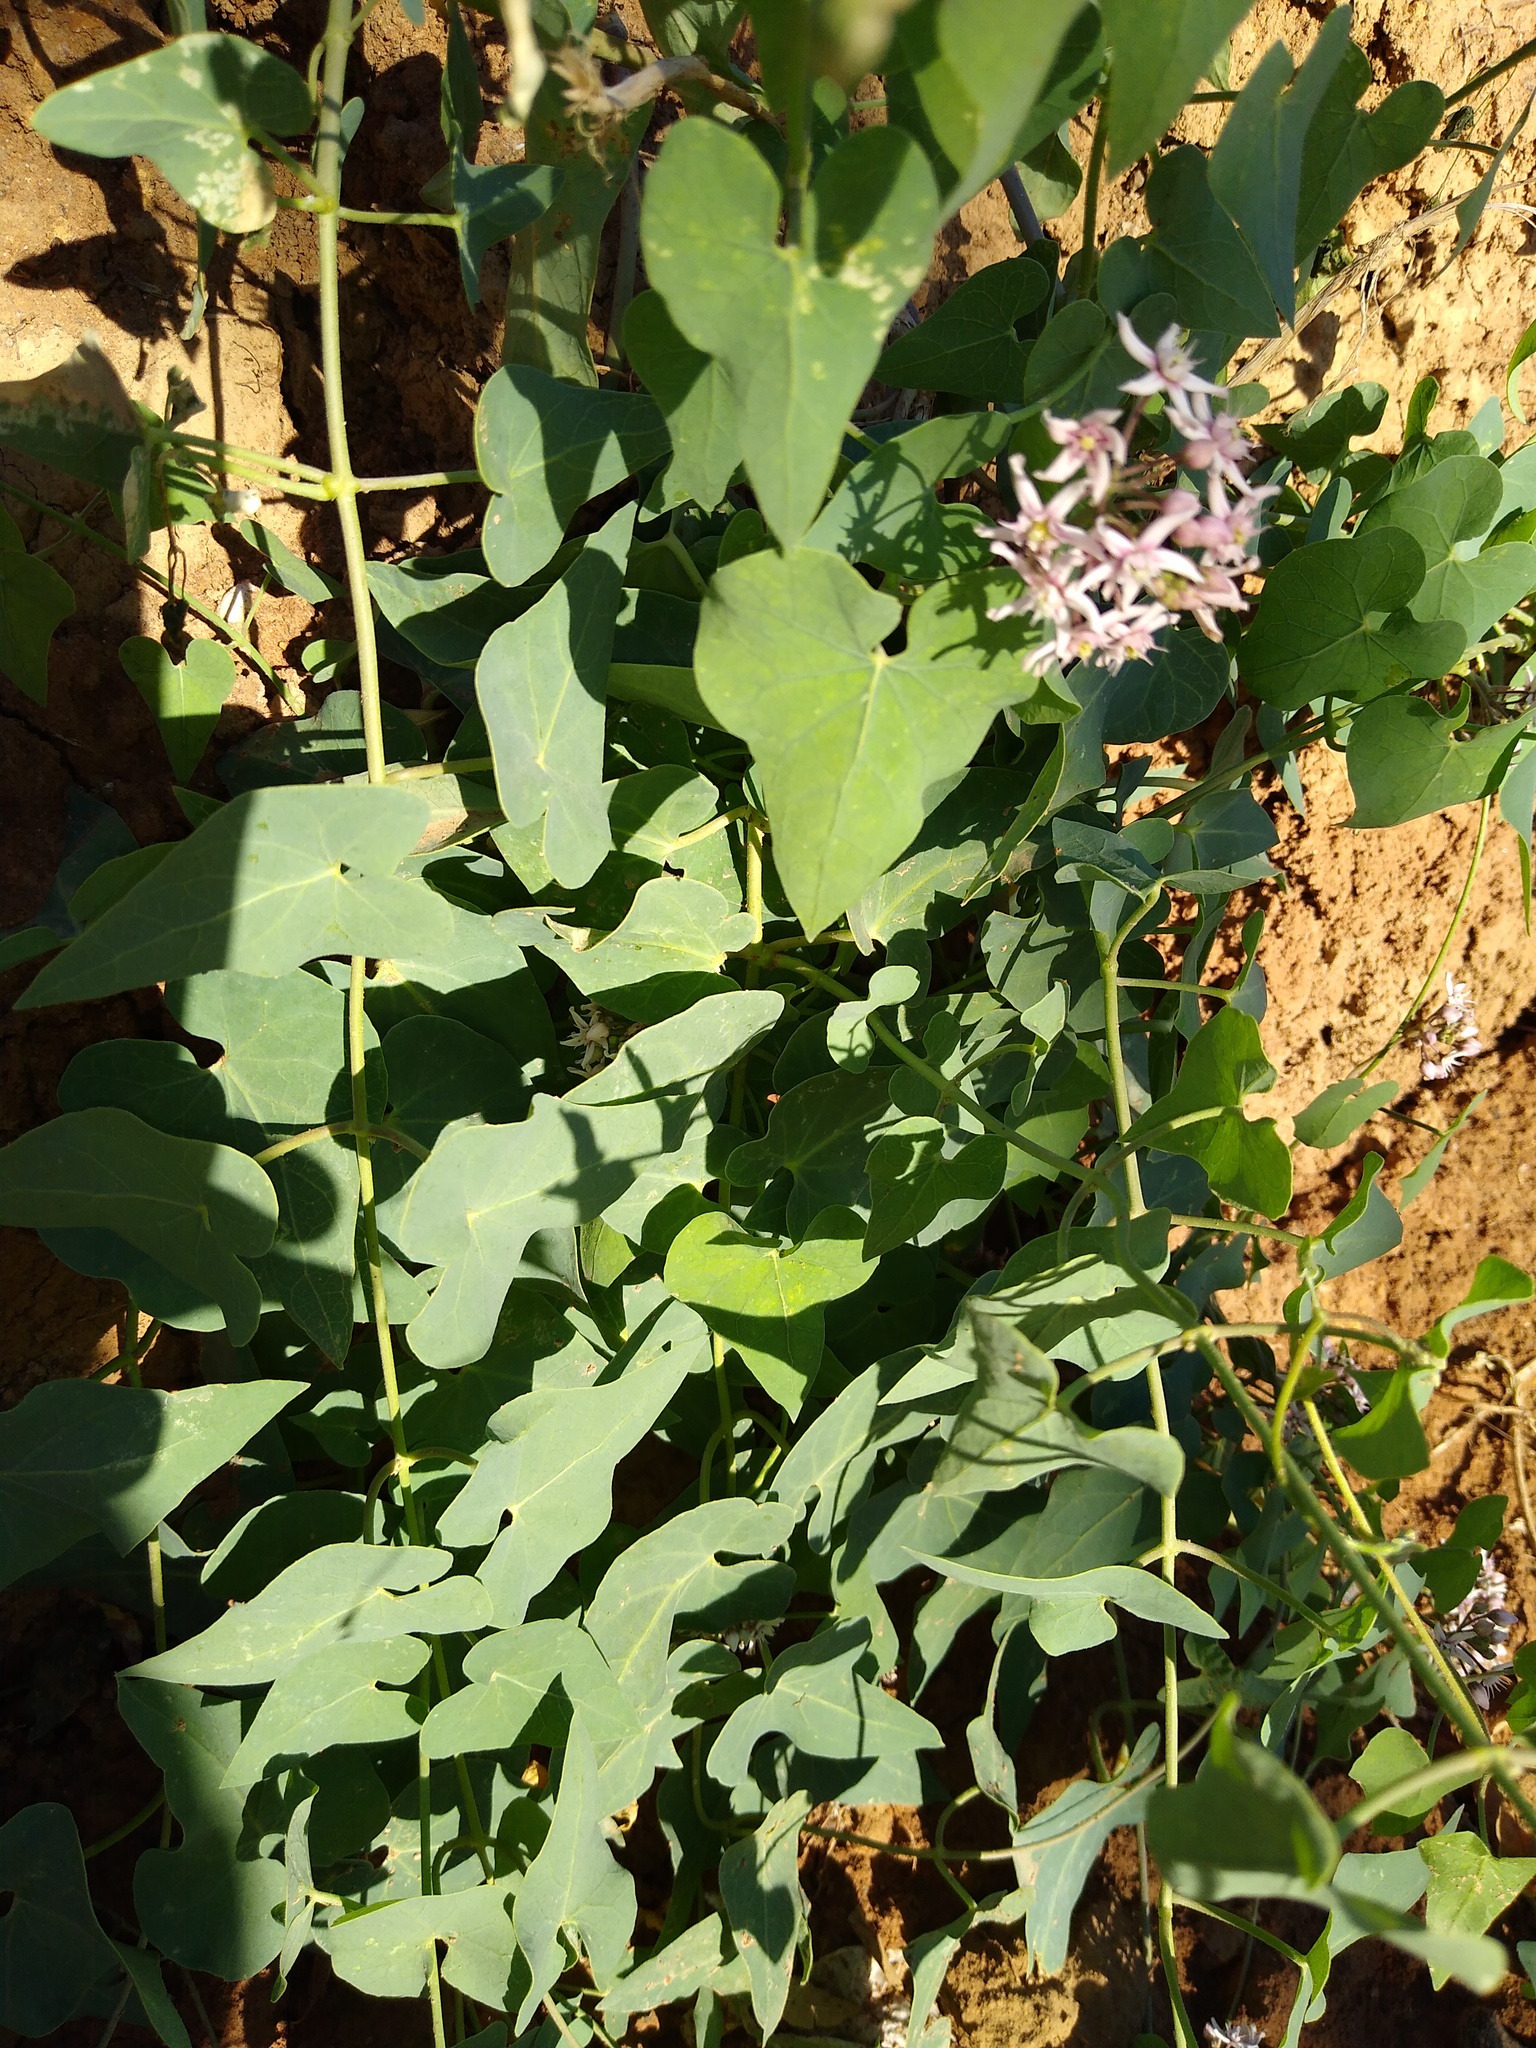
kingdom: Plantae
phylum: Tracheophyta
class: Magnoliopsida
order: Gentianales
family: Apocynaceae
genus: Cynanchum
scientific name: Cynanchum acutum
